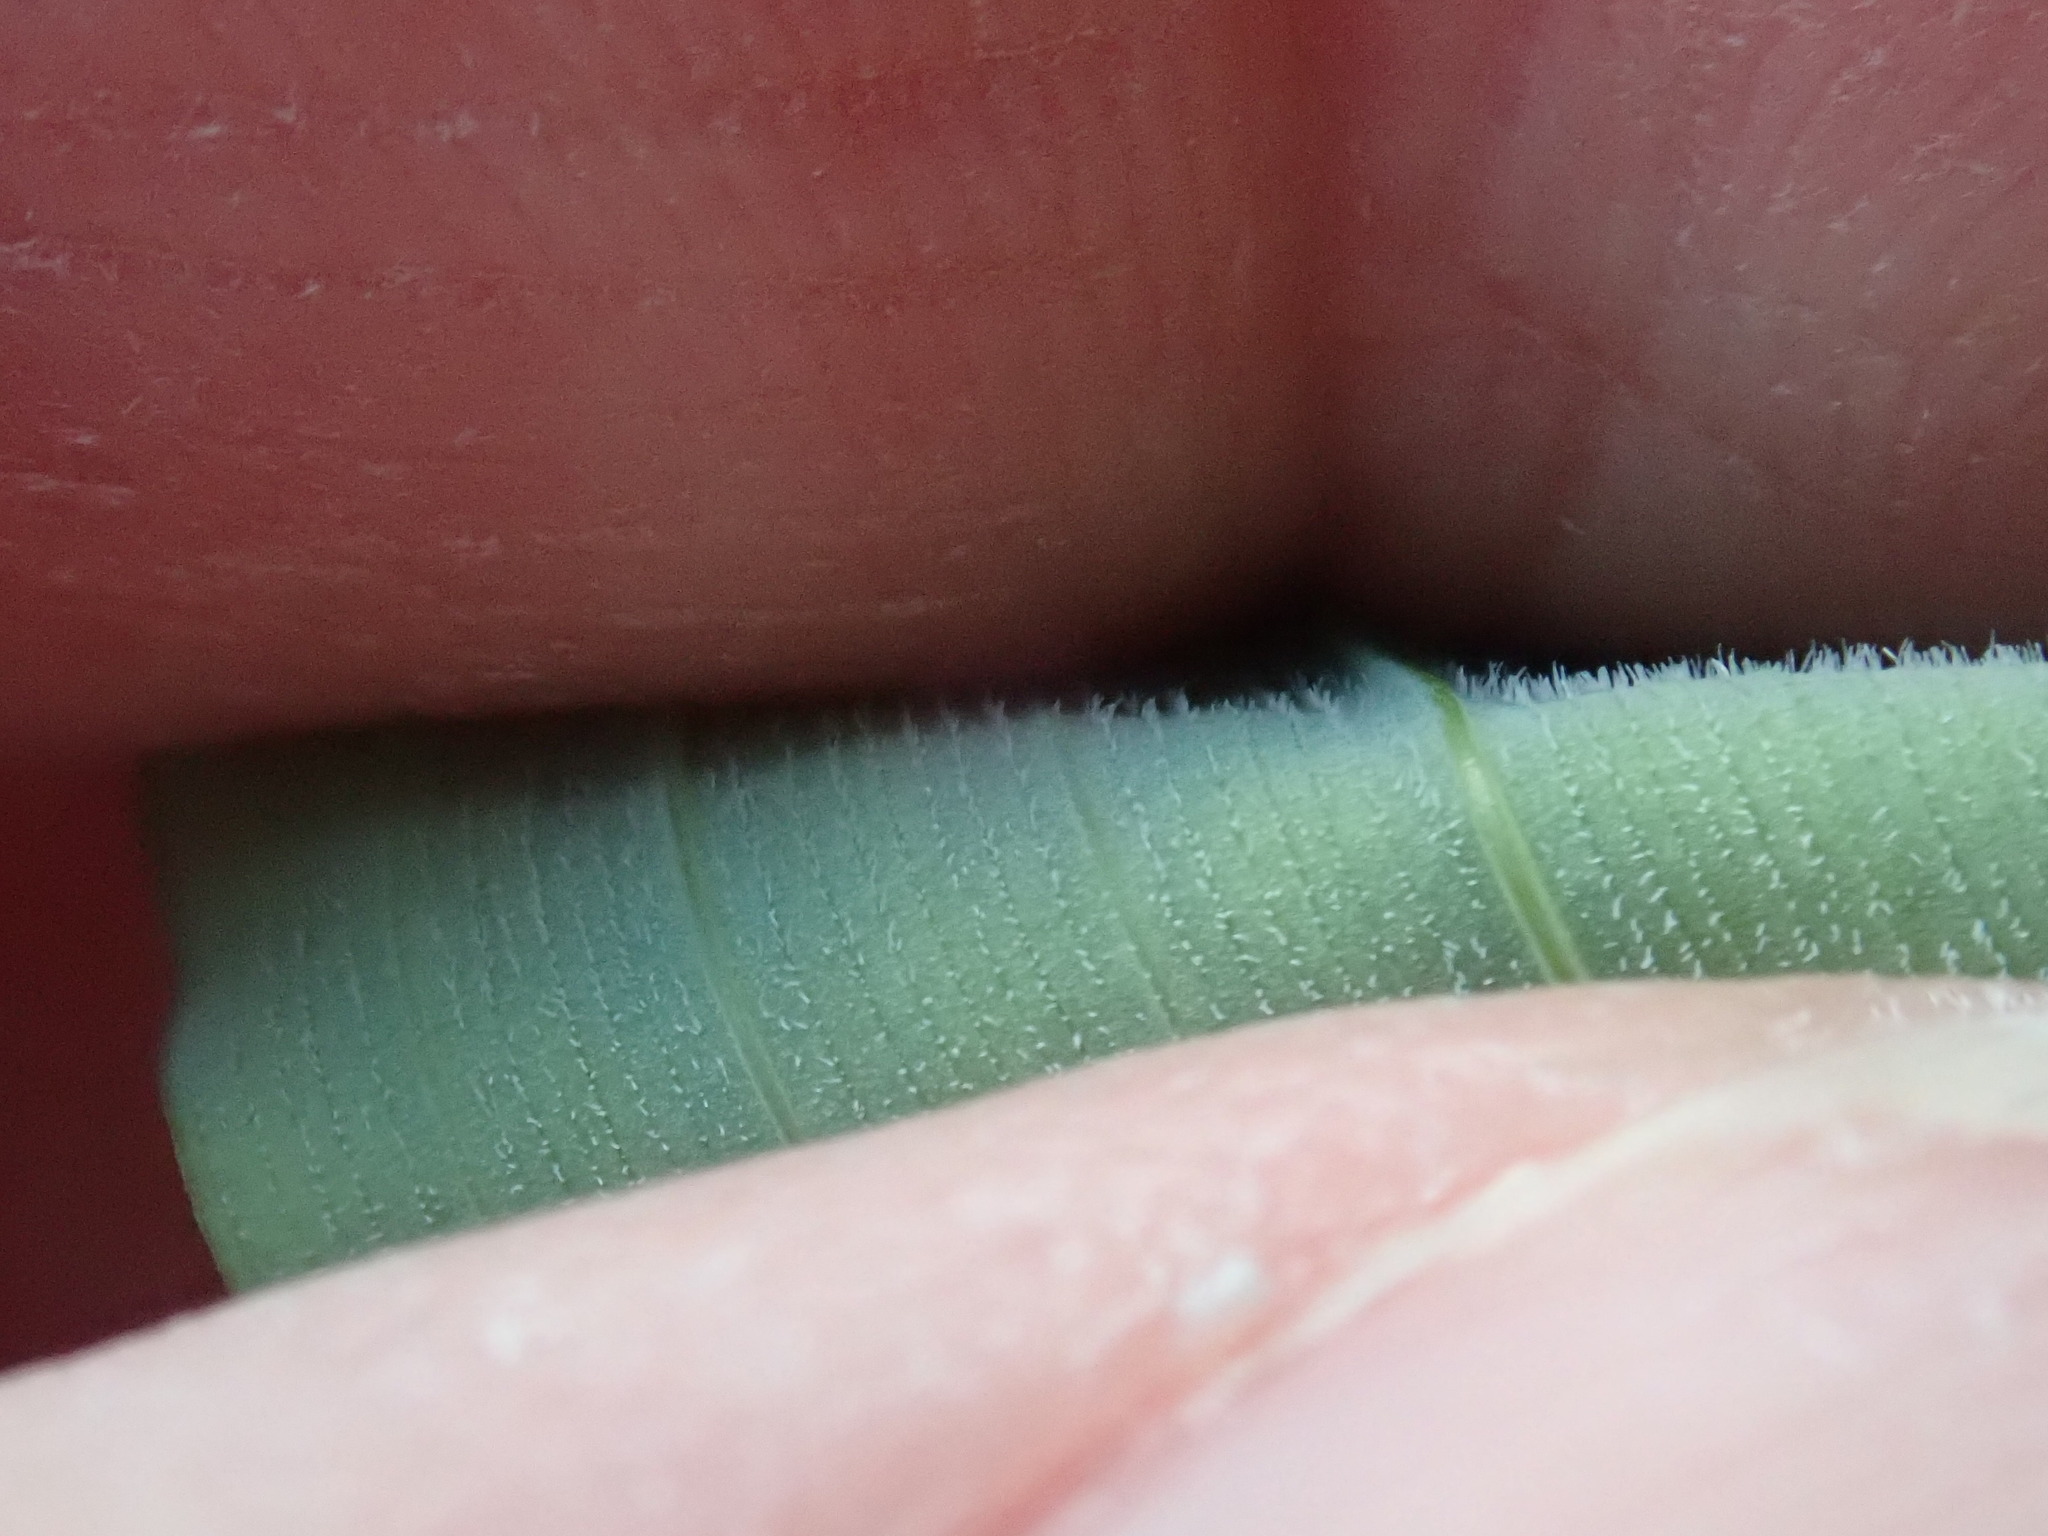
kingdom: Plantae
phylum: Tracheophyta
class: Liliopsida
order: Asparagales
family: Asparagaceae
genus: Polygonatum
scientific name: Polygonatum pubescens
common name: Downy solomon's seal
